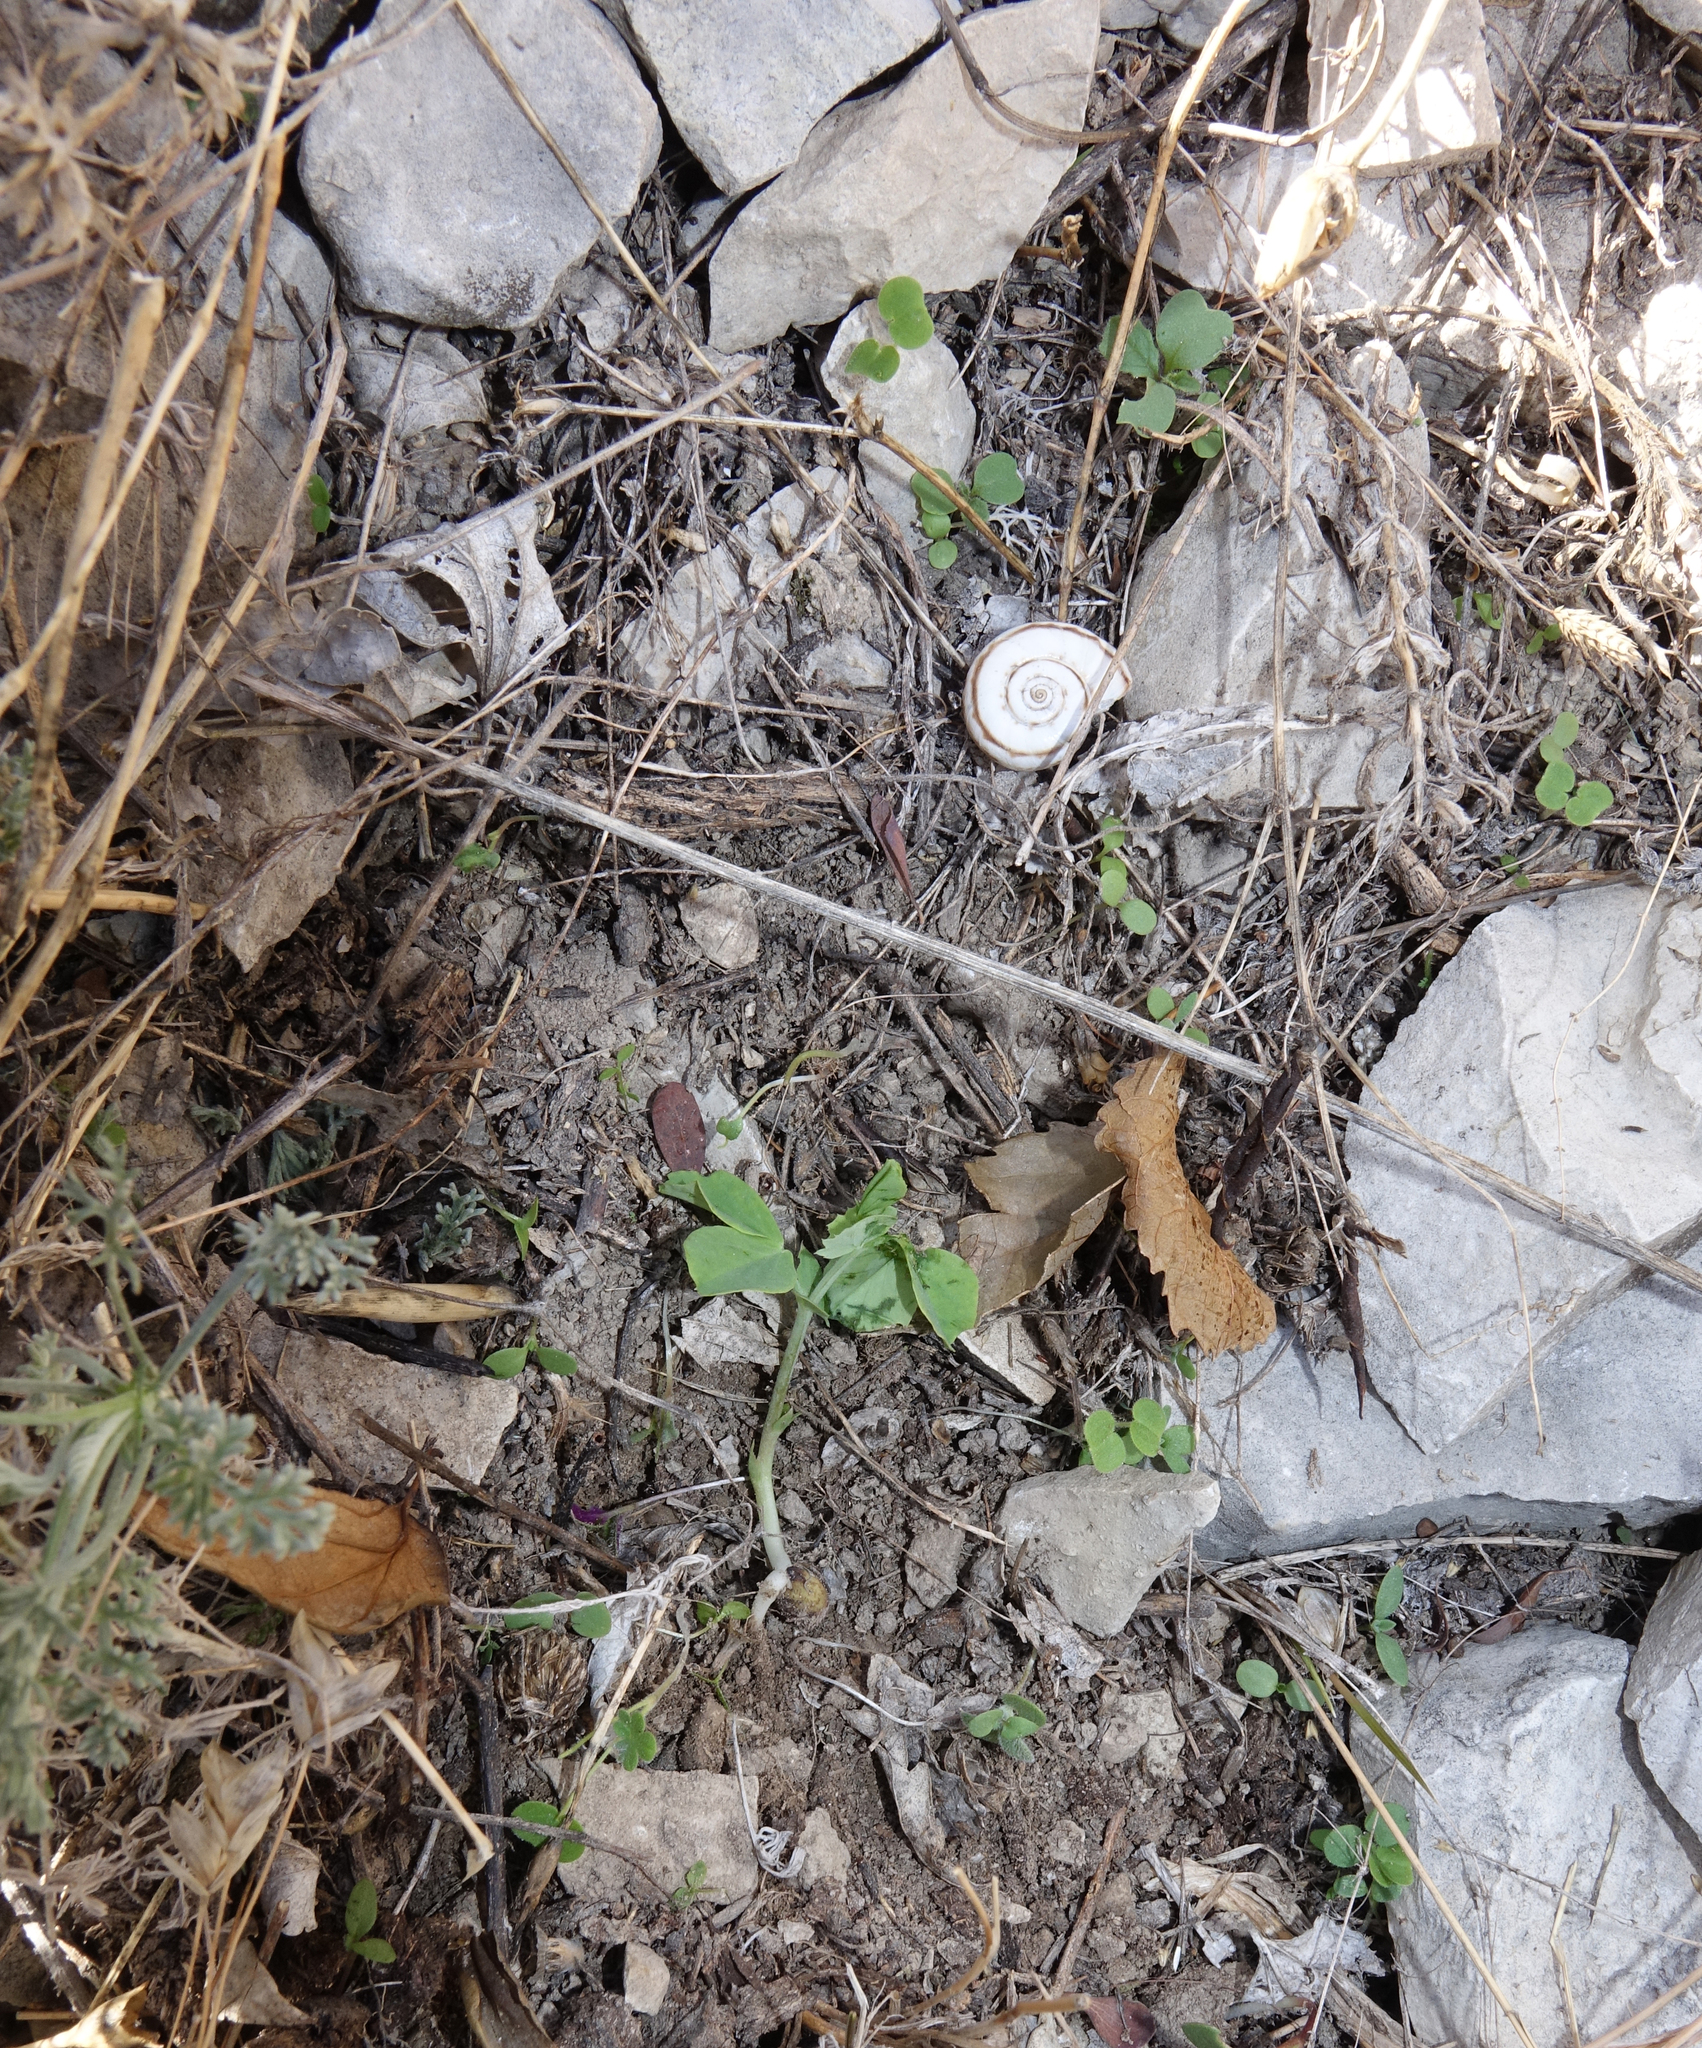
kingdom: Plantae
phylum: Tracheophyta
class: Magnoliopsida
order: Fabales
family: Fabaceae
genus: Lathyrus
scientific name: Lathyrus oleraceus
